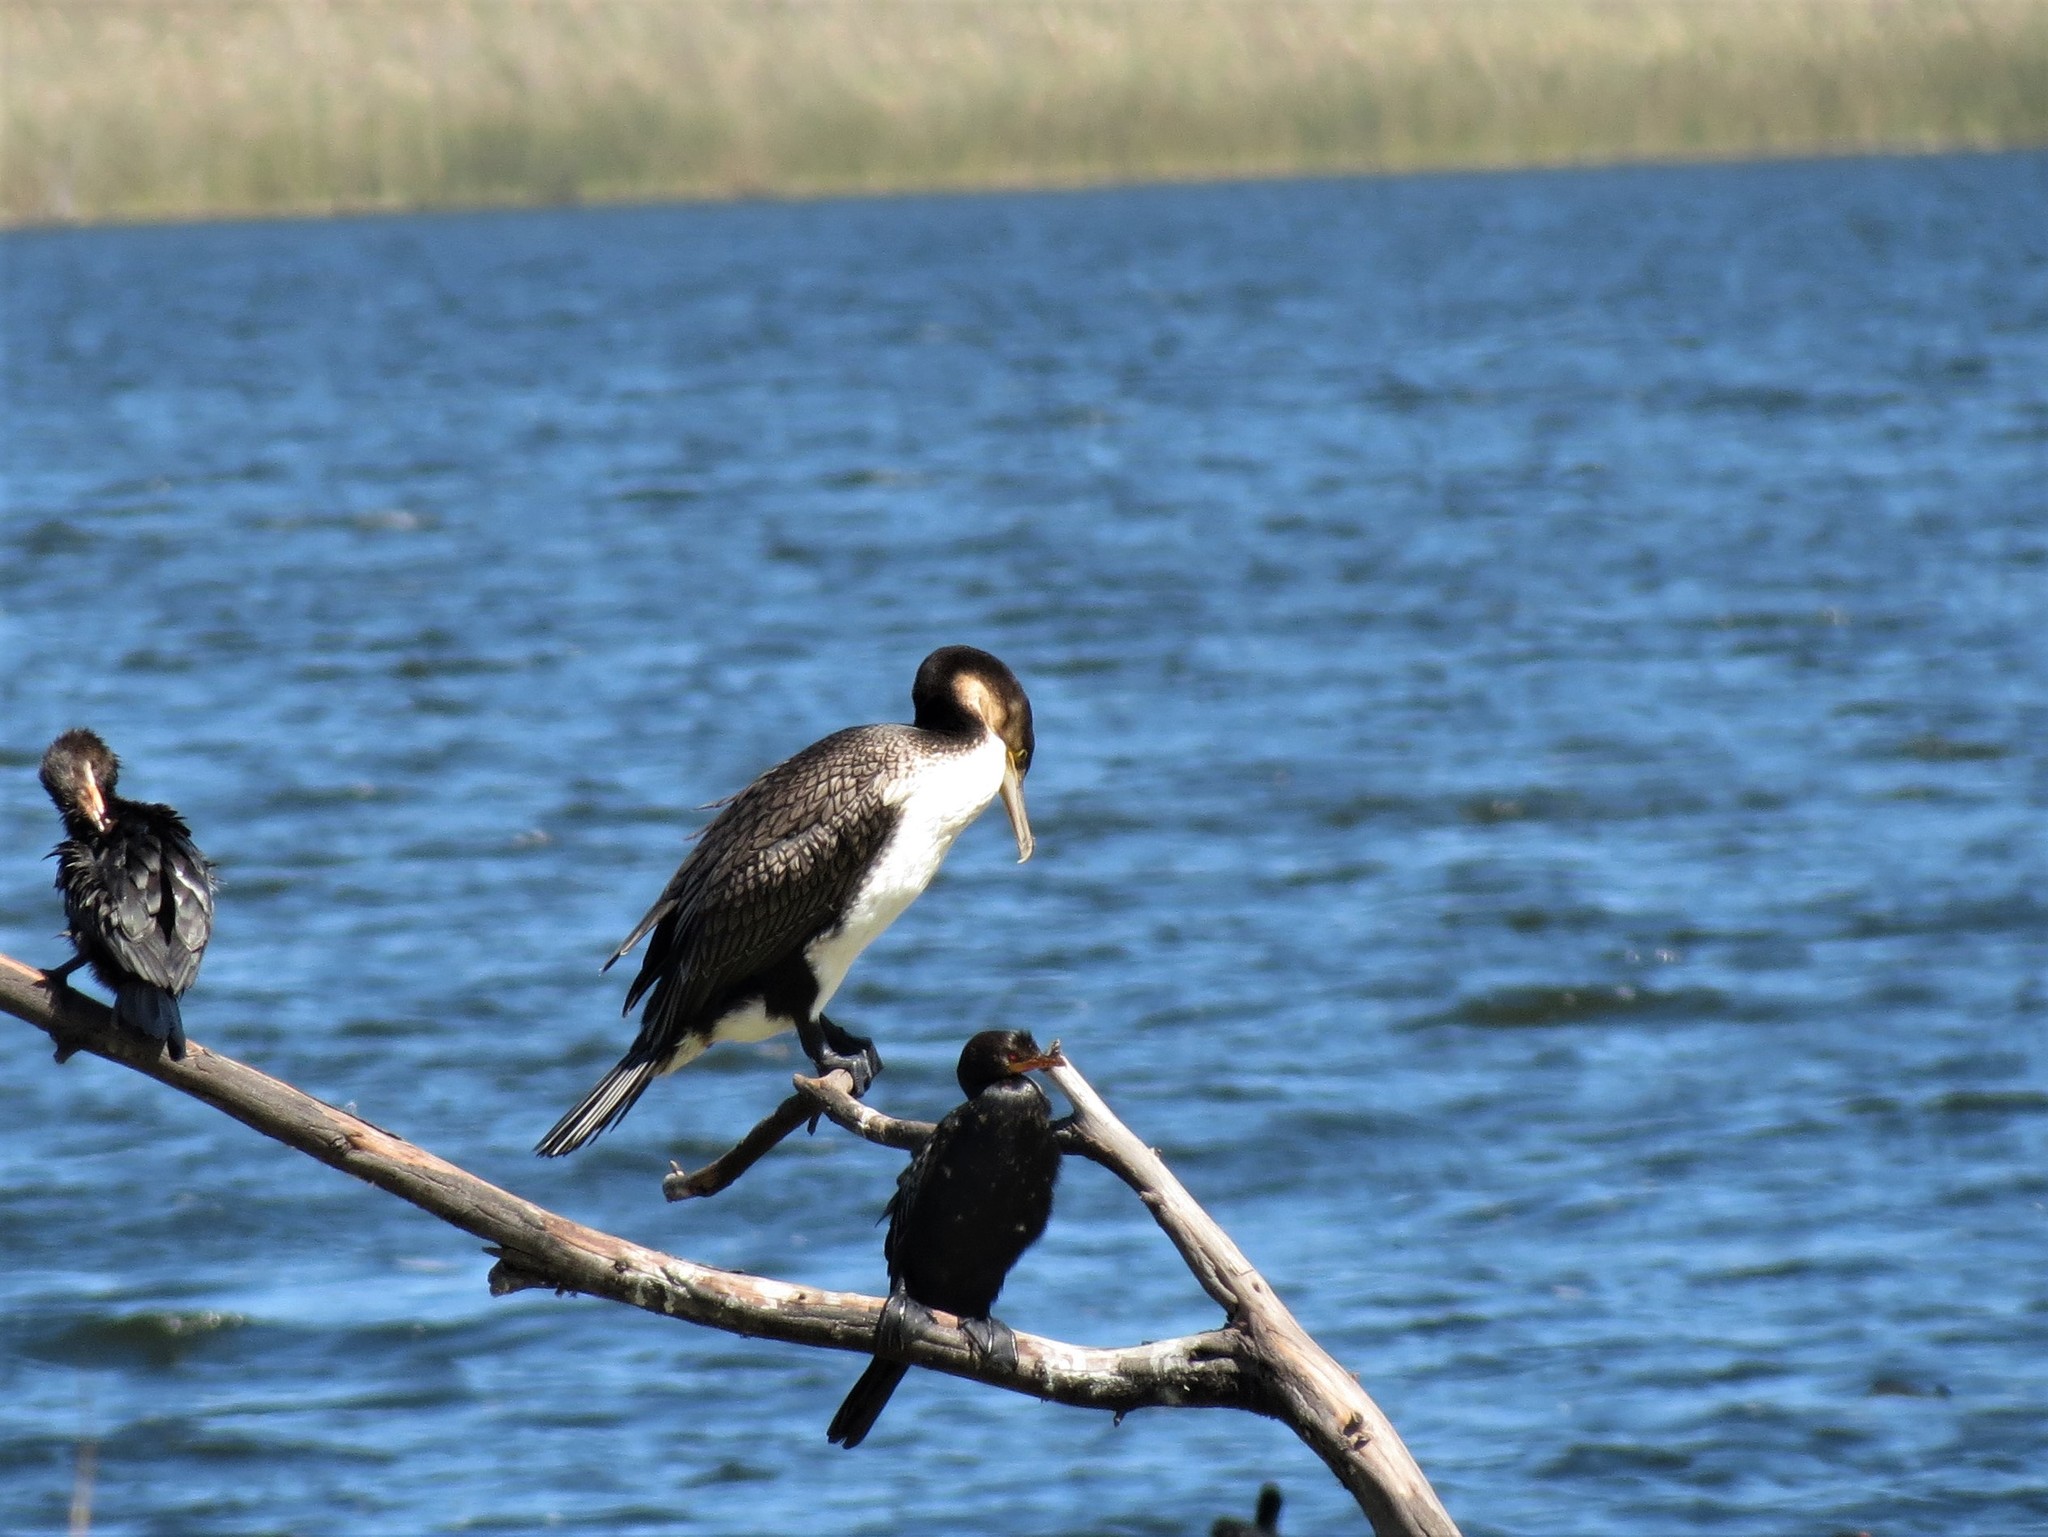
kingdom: Animalia
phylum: Chordata
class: Aves
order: Suliformes
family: Phalacrocoracidae
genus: Phalacrocorax
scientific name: Phalacrocorax carbo
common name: Great cormorant
